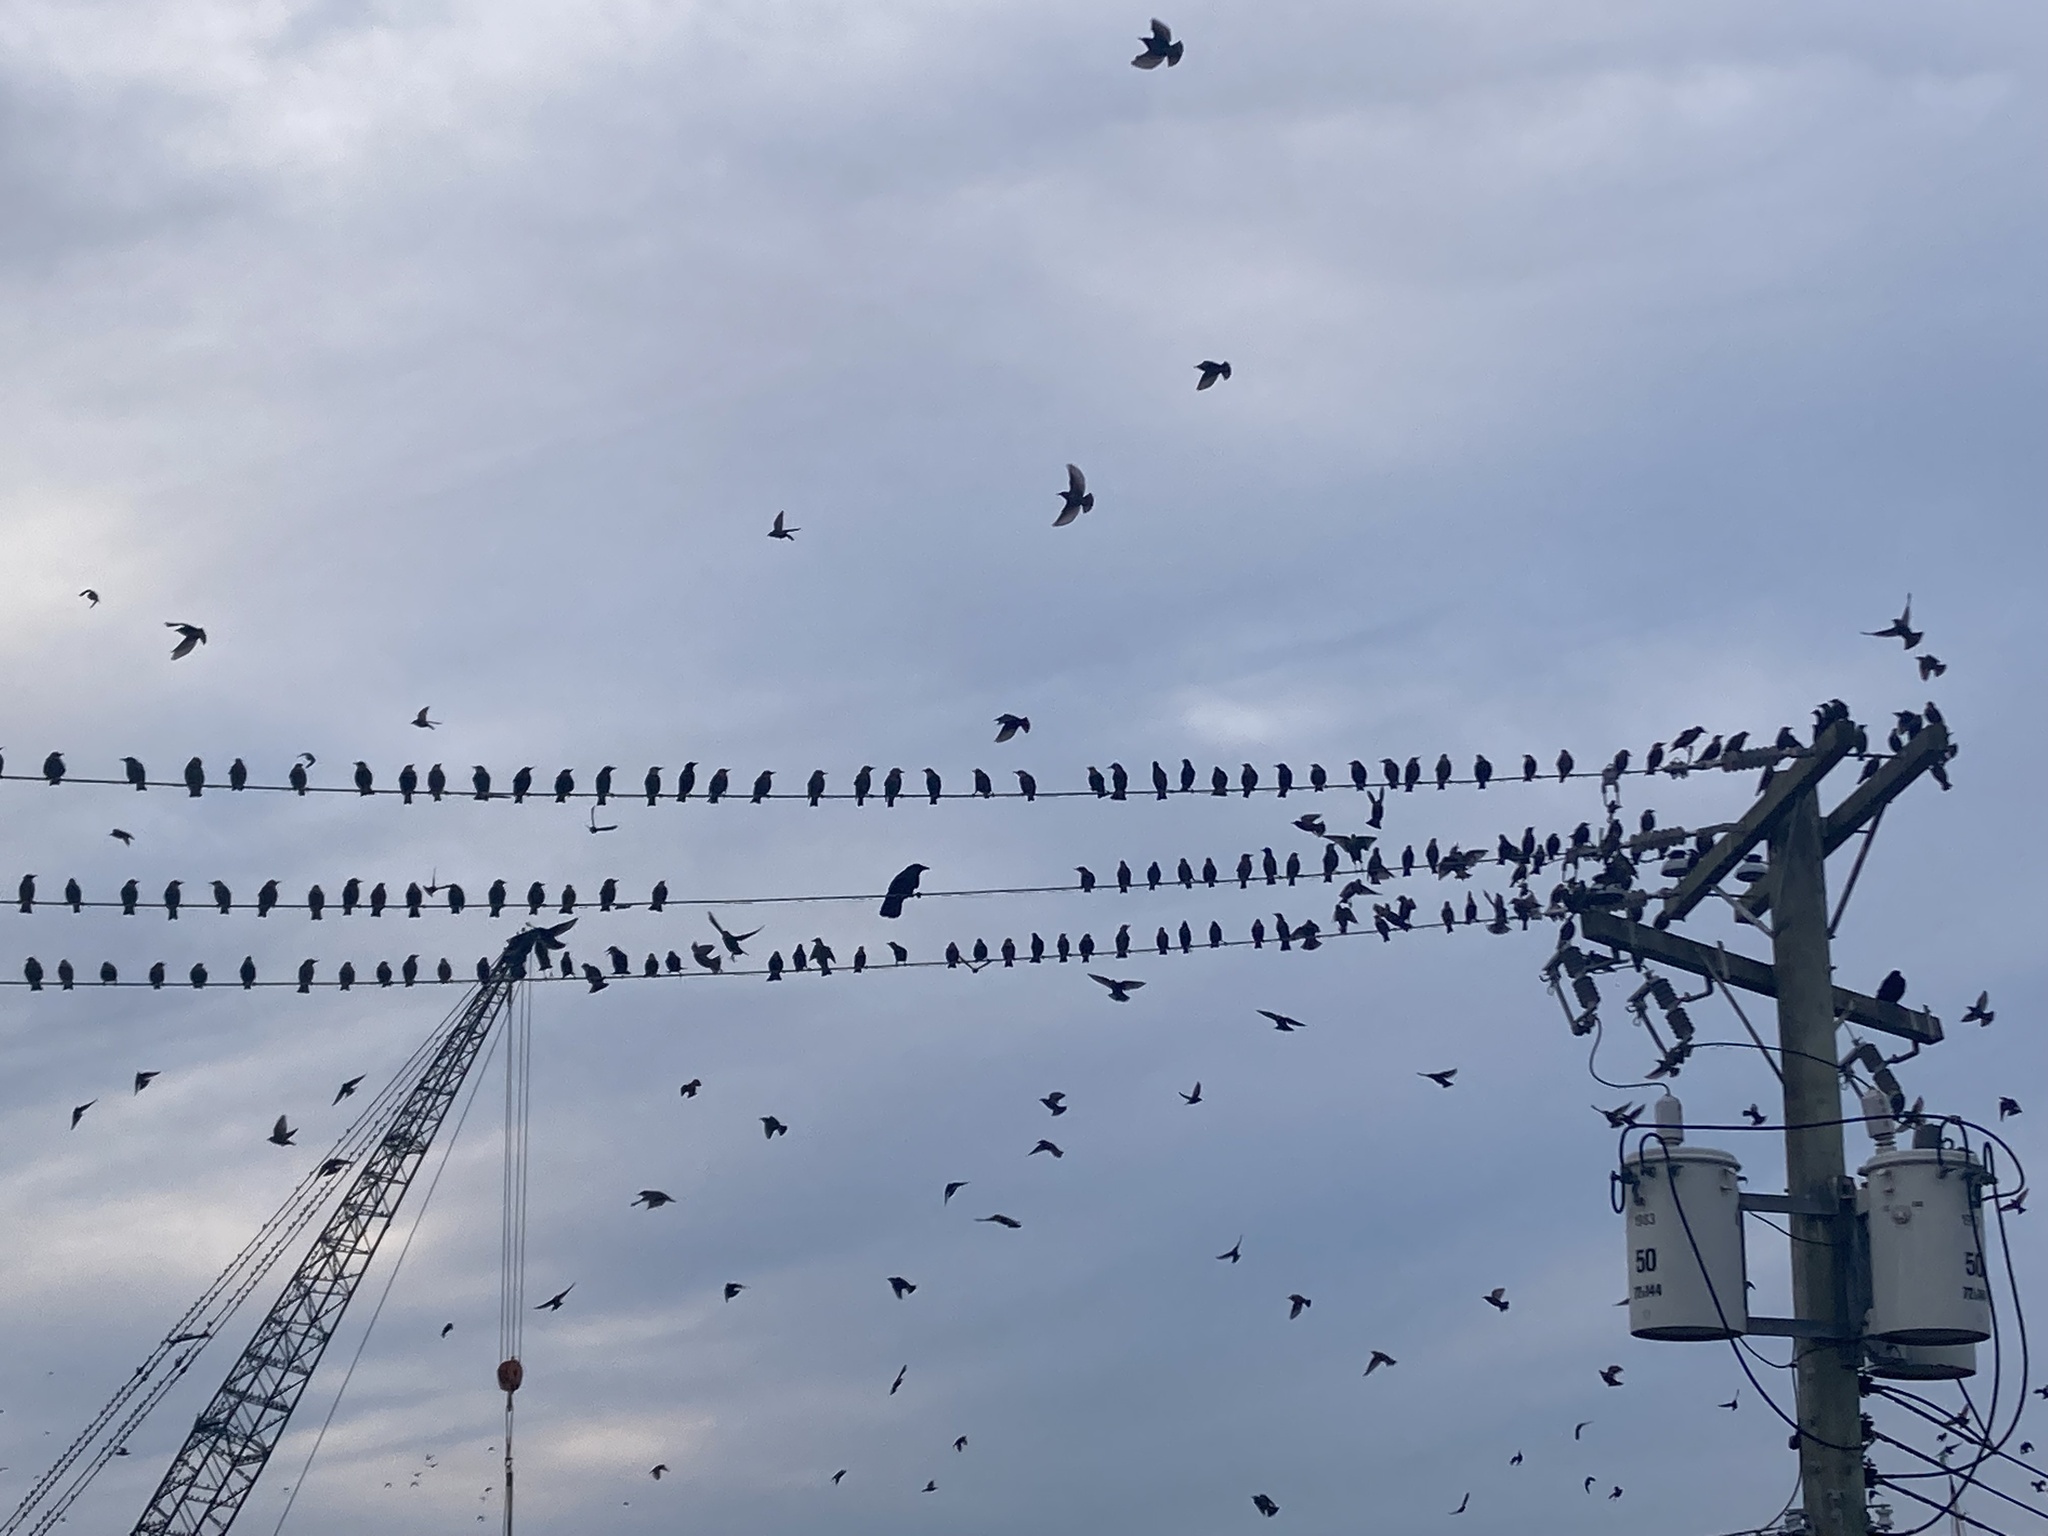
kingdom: Animalia
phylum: Chordata
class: Aves
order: Passeriformes
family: Sturnidae
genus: Sturnus
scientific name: Sturnus vulgaris
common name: Common starling
